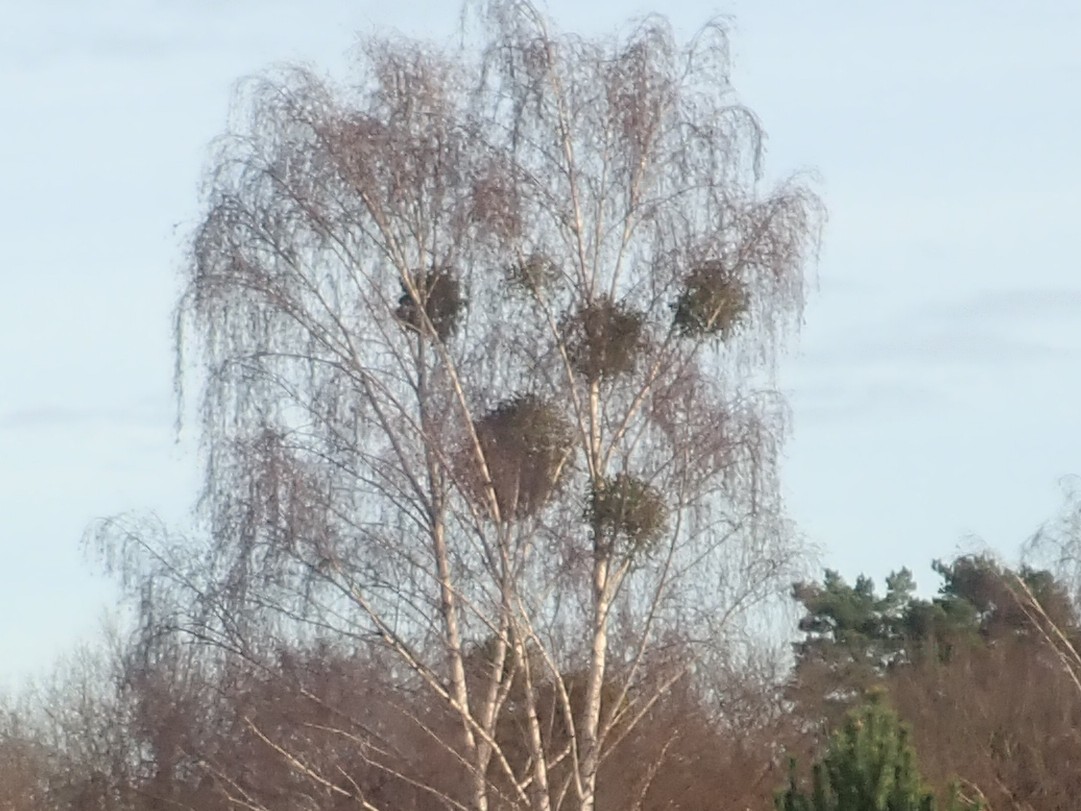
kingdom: Plantae
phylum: Tracheophyta
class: Magnoliopsida
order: Santalales
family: Viscaceae
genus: Viscum
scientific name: Viscum album
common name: Mistletoe
